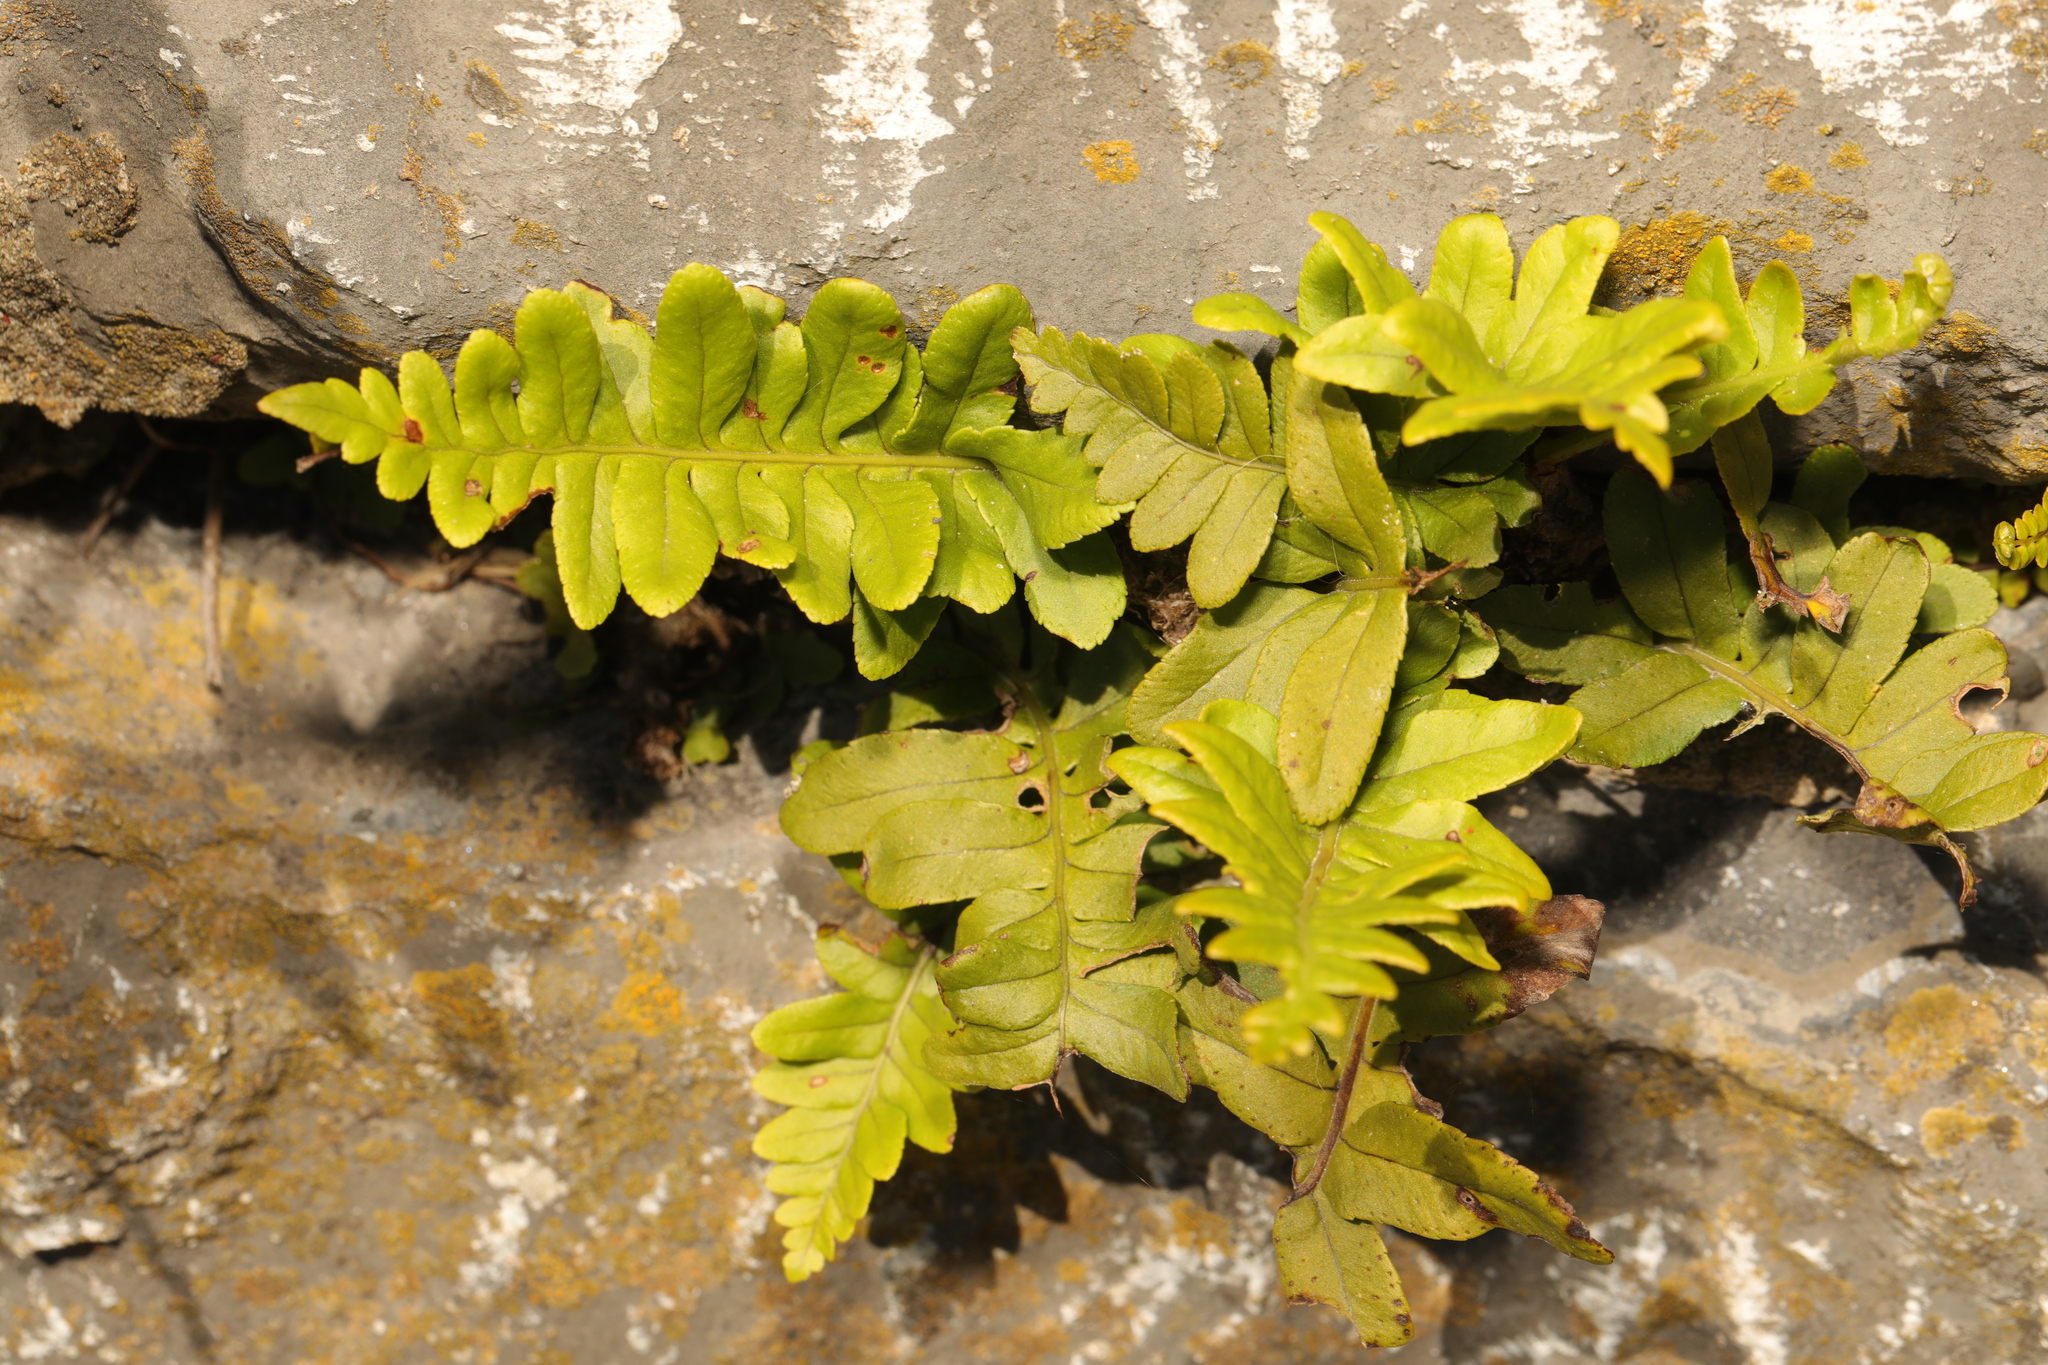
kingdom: Plantae
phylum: Tracheophyta
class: Polypodiopsida
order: Polypodiales
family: Polypodiaceae
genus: Polypodium
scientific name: Polypodium
